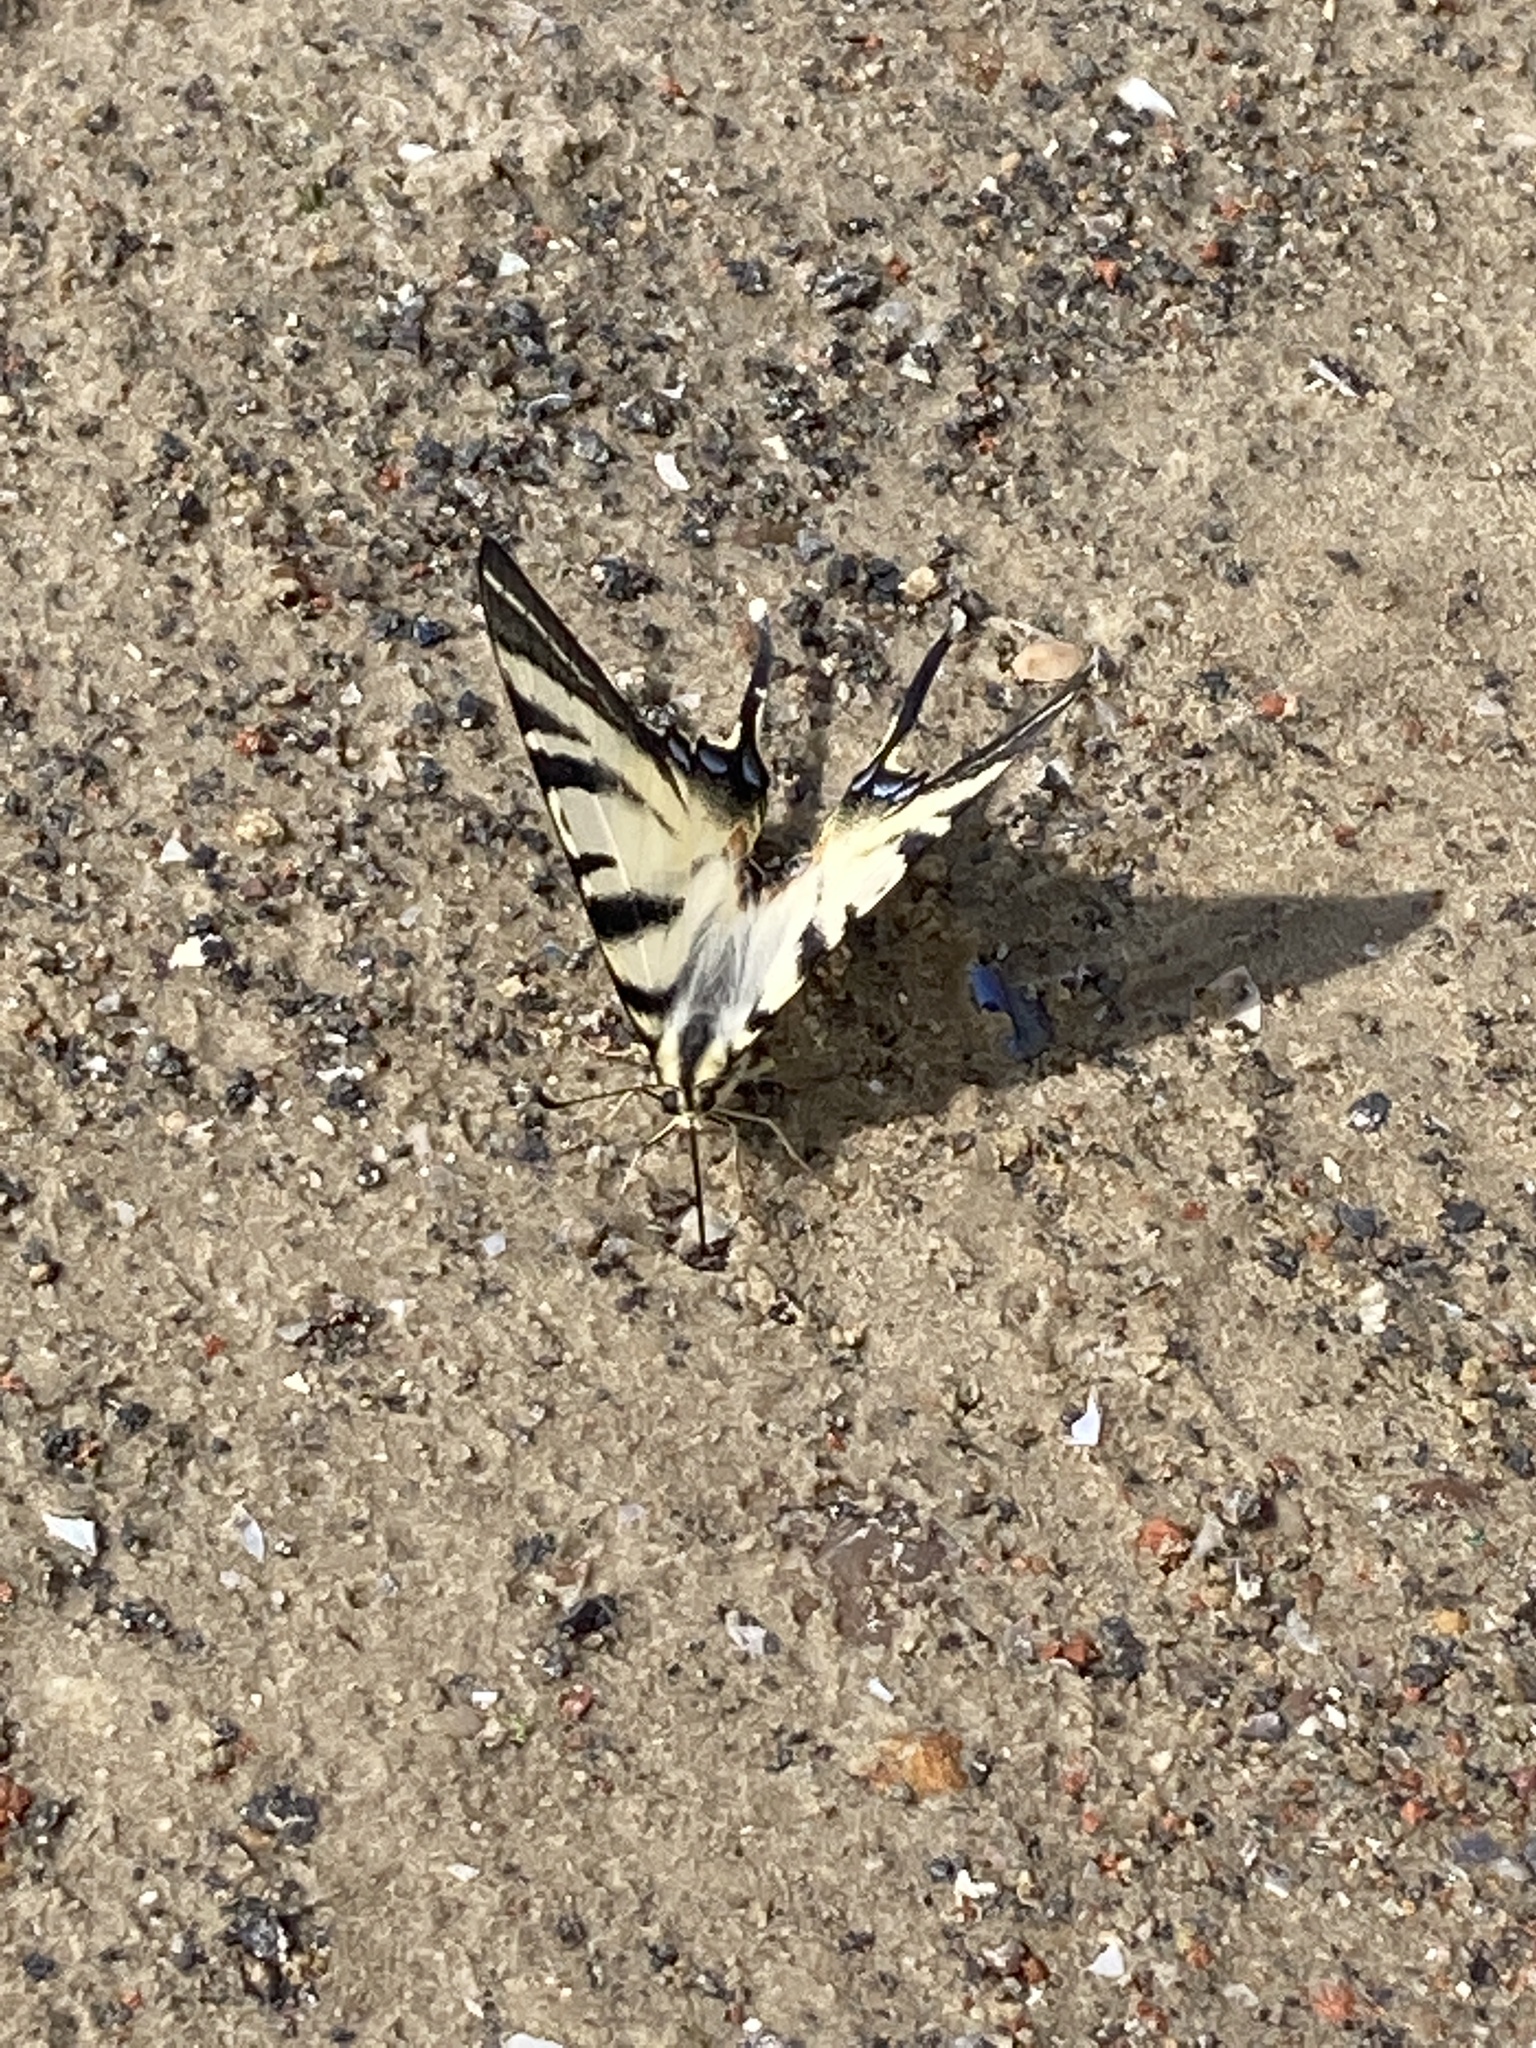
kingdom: Animalia
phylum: Arthropoda
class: Insecta
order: Lepidoptera
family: Papilionidae
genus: Iphiclides
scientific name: Iphiclides podalirius
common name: Scarce swallowtail
